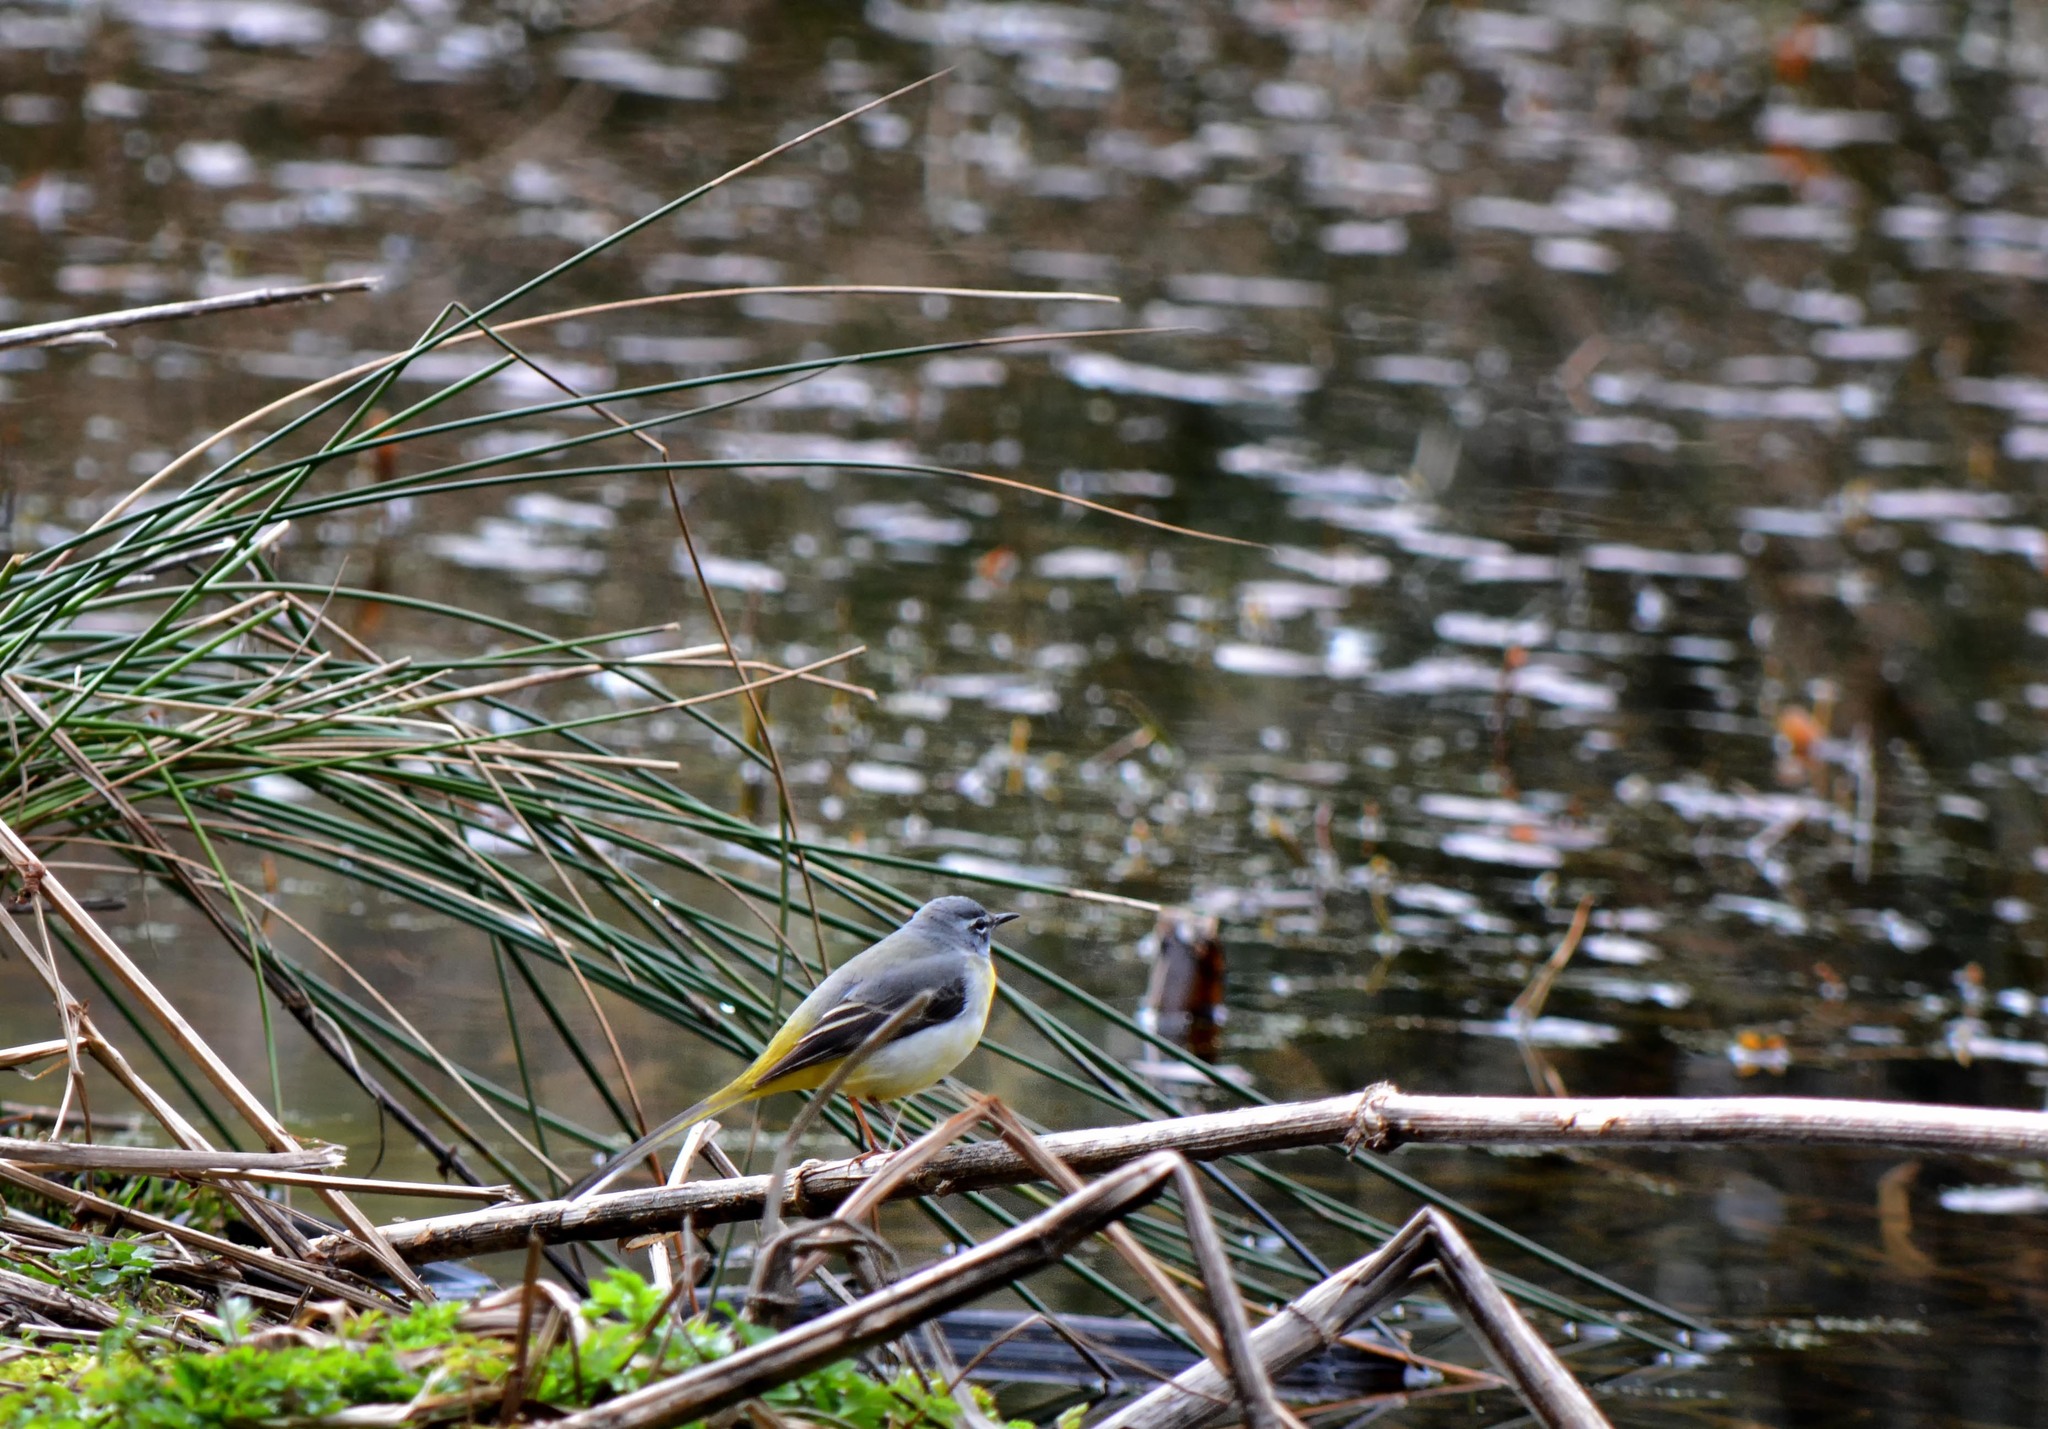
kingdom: Animalia
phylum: Chordata
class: Aves
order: Passeriformes
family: Motacillidae
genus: Motacilla
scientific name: Motacilla cinerea
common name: Grey wagtail
